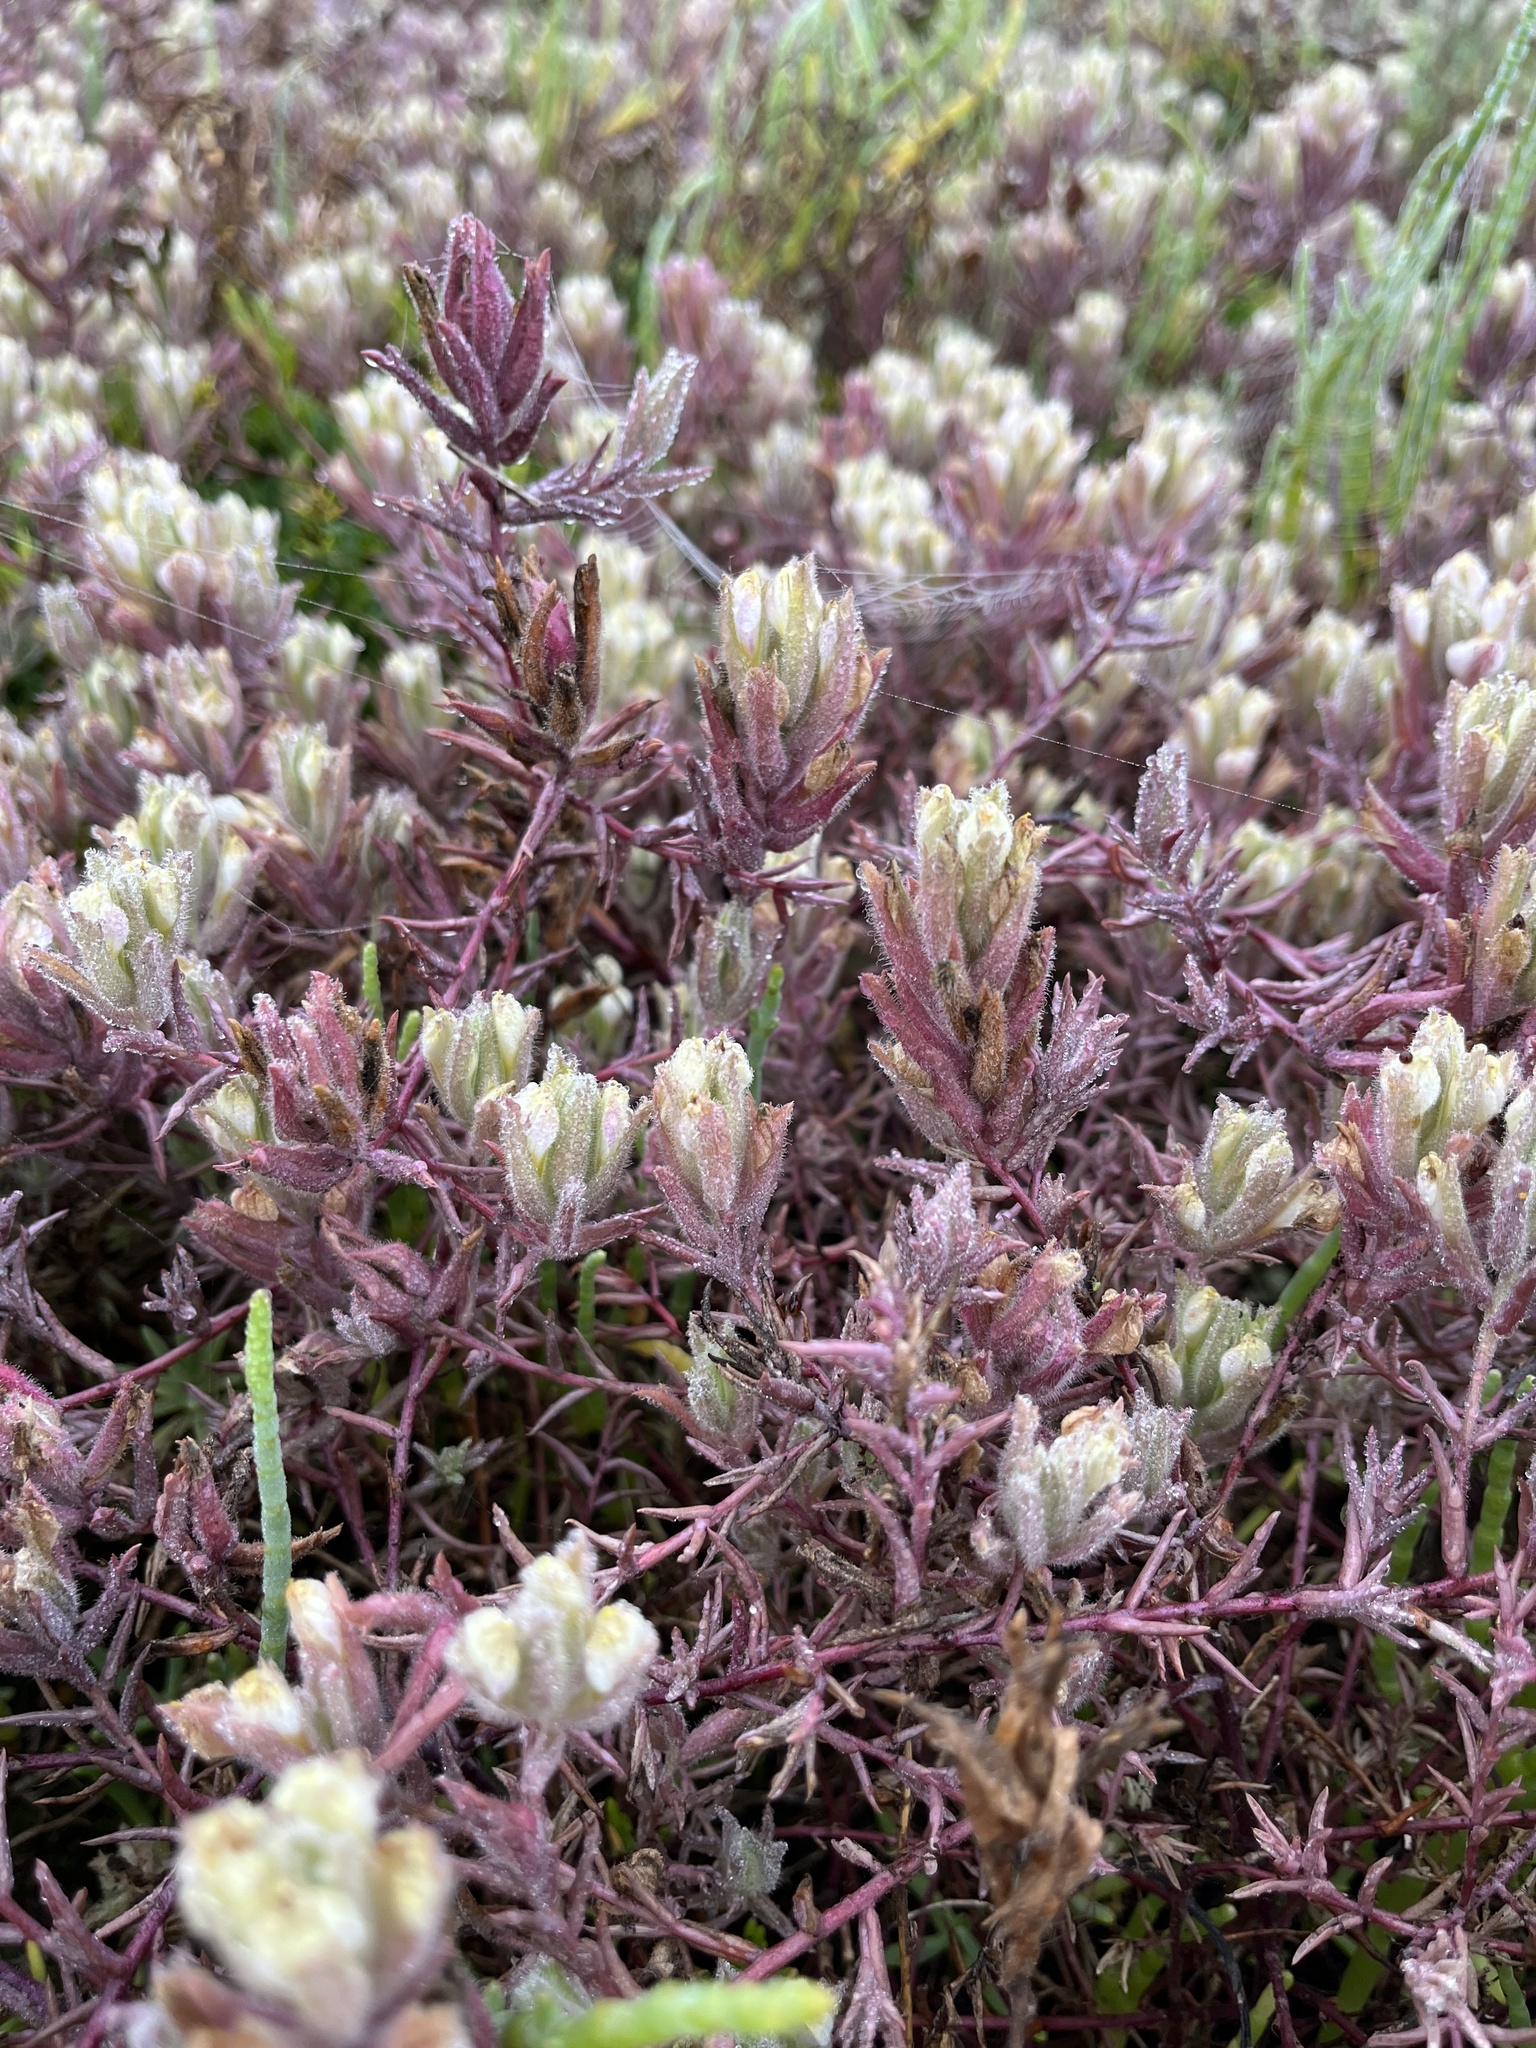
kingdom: Plantae
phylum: Tracheophyta
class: Magnoliopsida
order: Lamiales
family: Orobanchaceae
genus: Chloropyron
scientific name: Chloropyron maritimum
